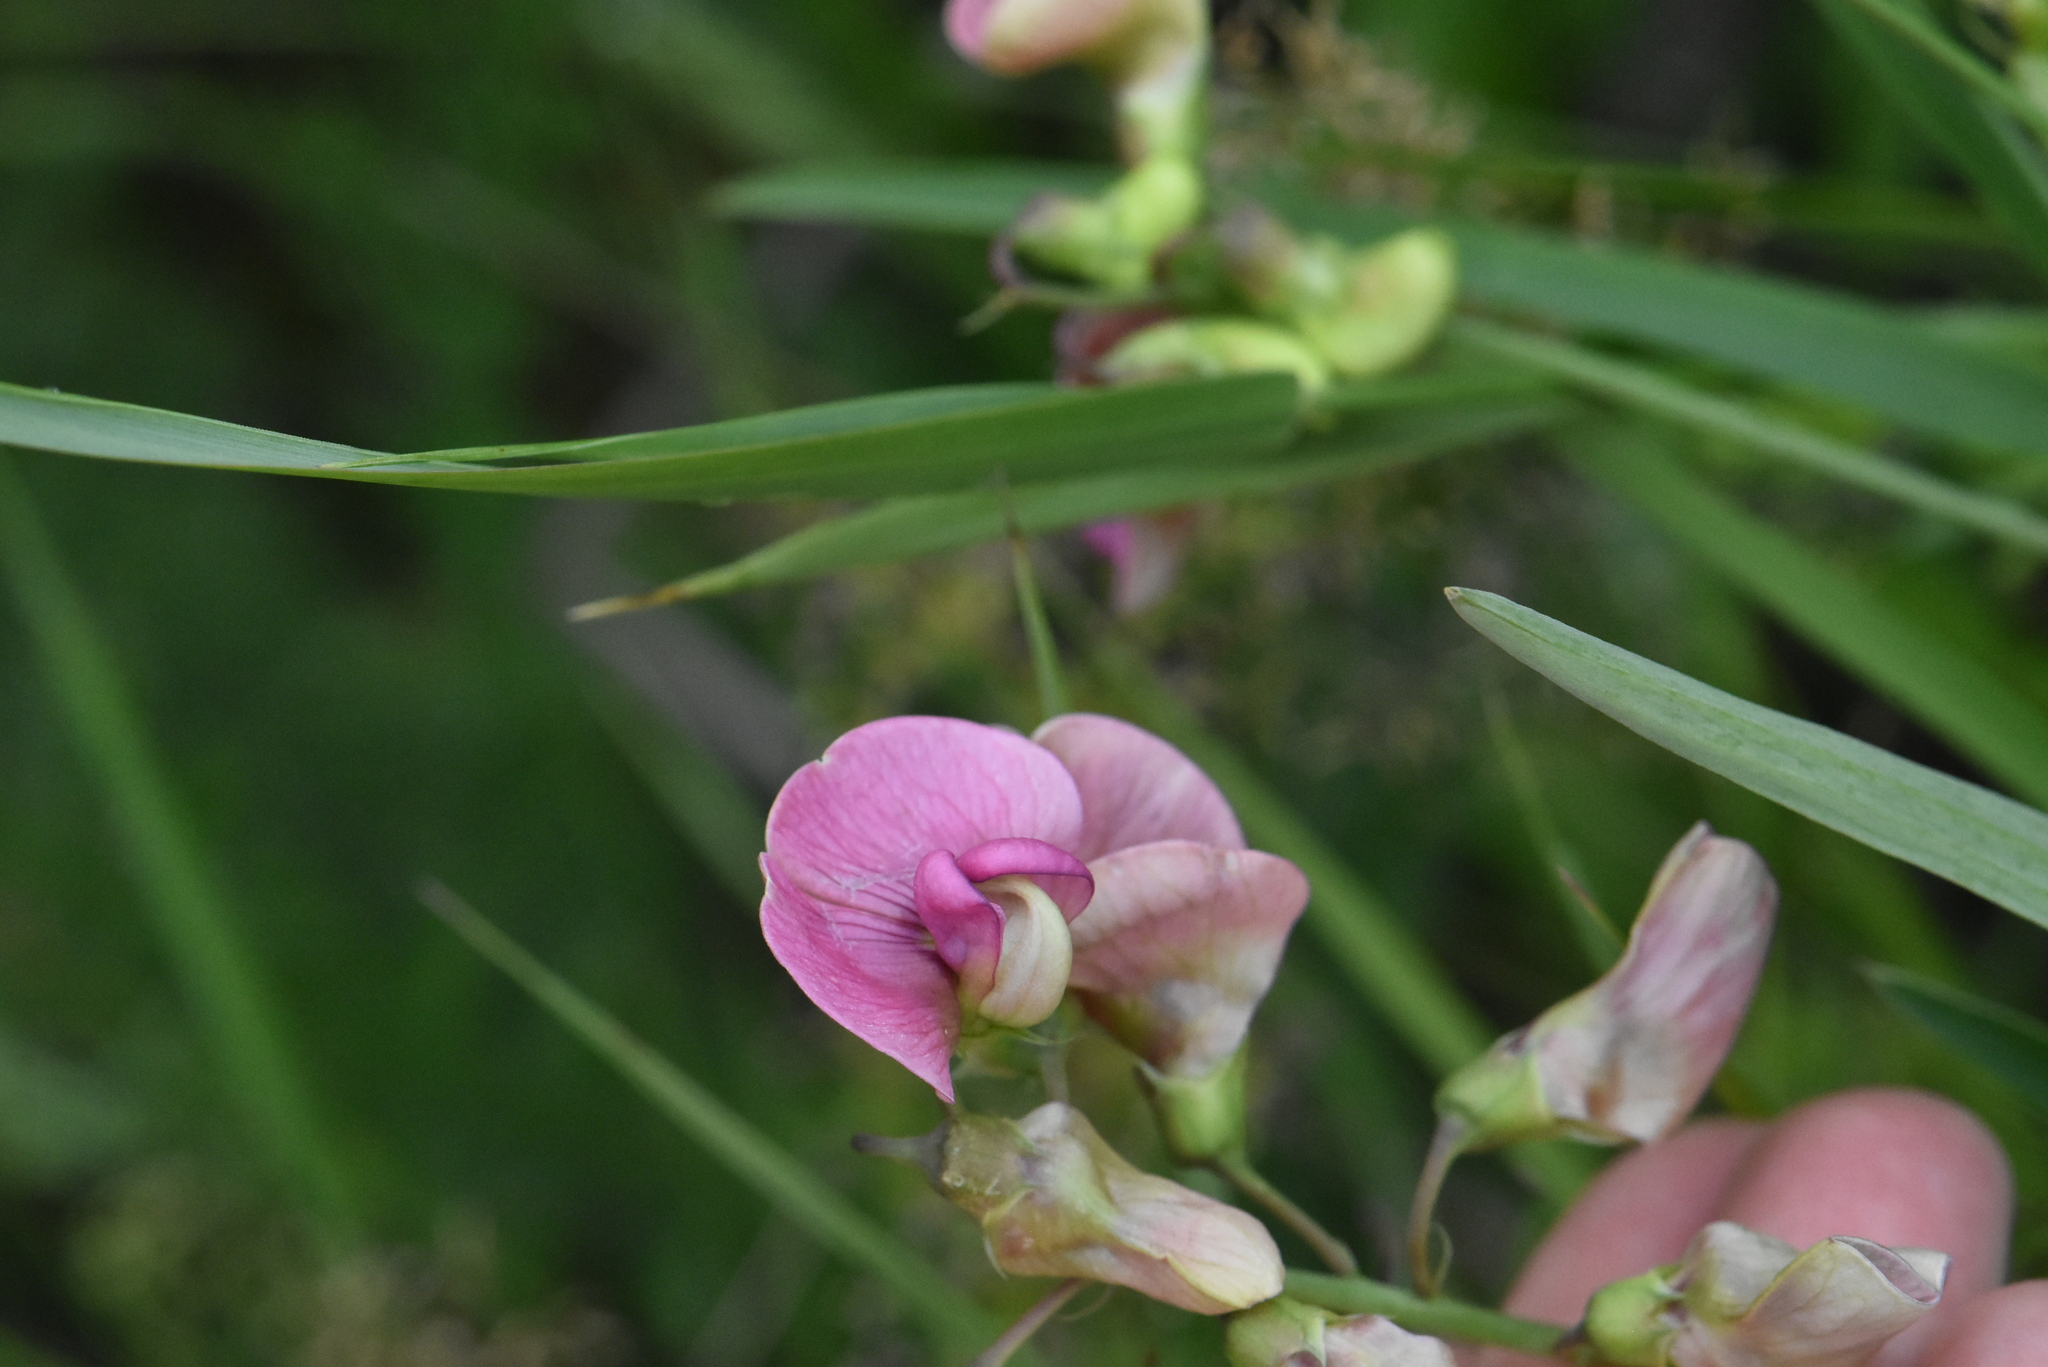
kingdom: Plantae
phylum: Tracheophyta
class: Magnoliopsida
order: Fabales
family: Fabaceae
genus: Lathyrus
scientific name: Lathyrus sylvestris
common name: Flat pea
